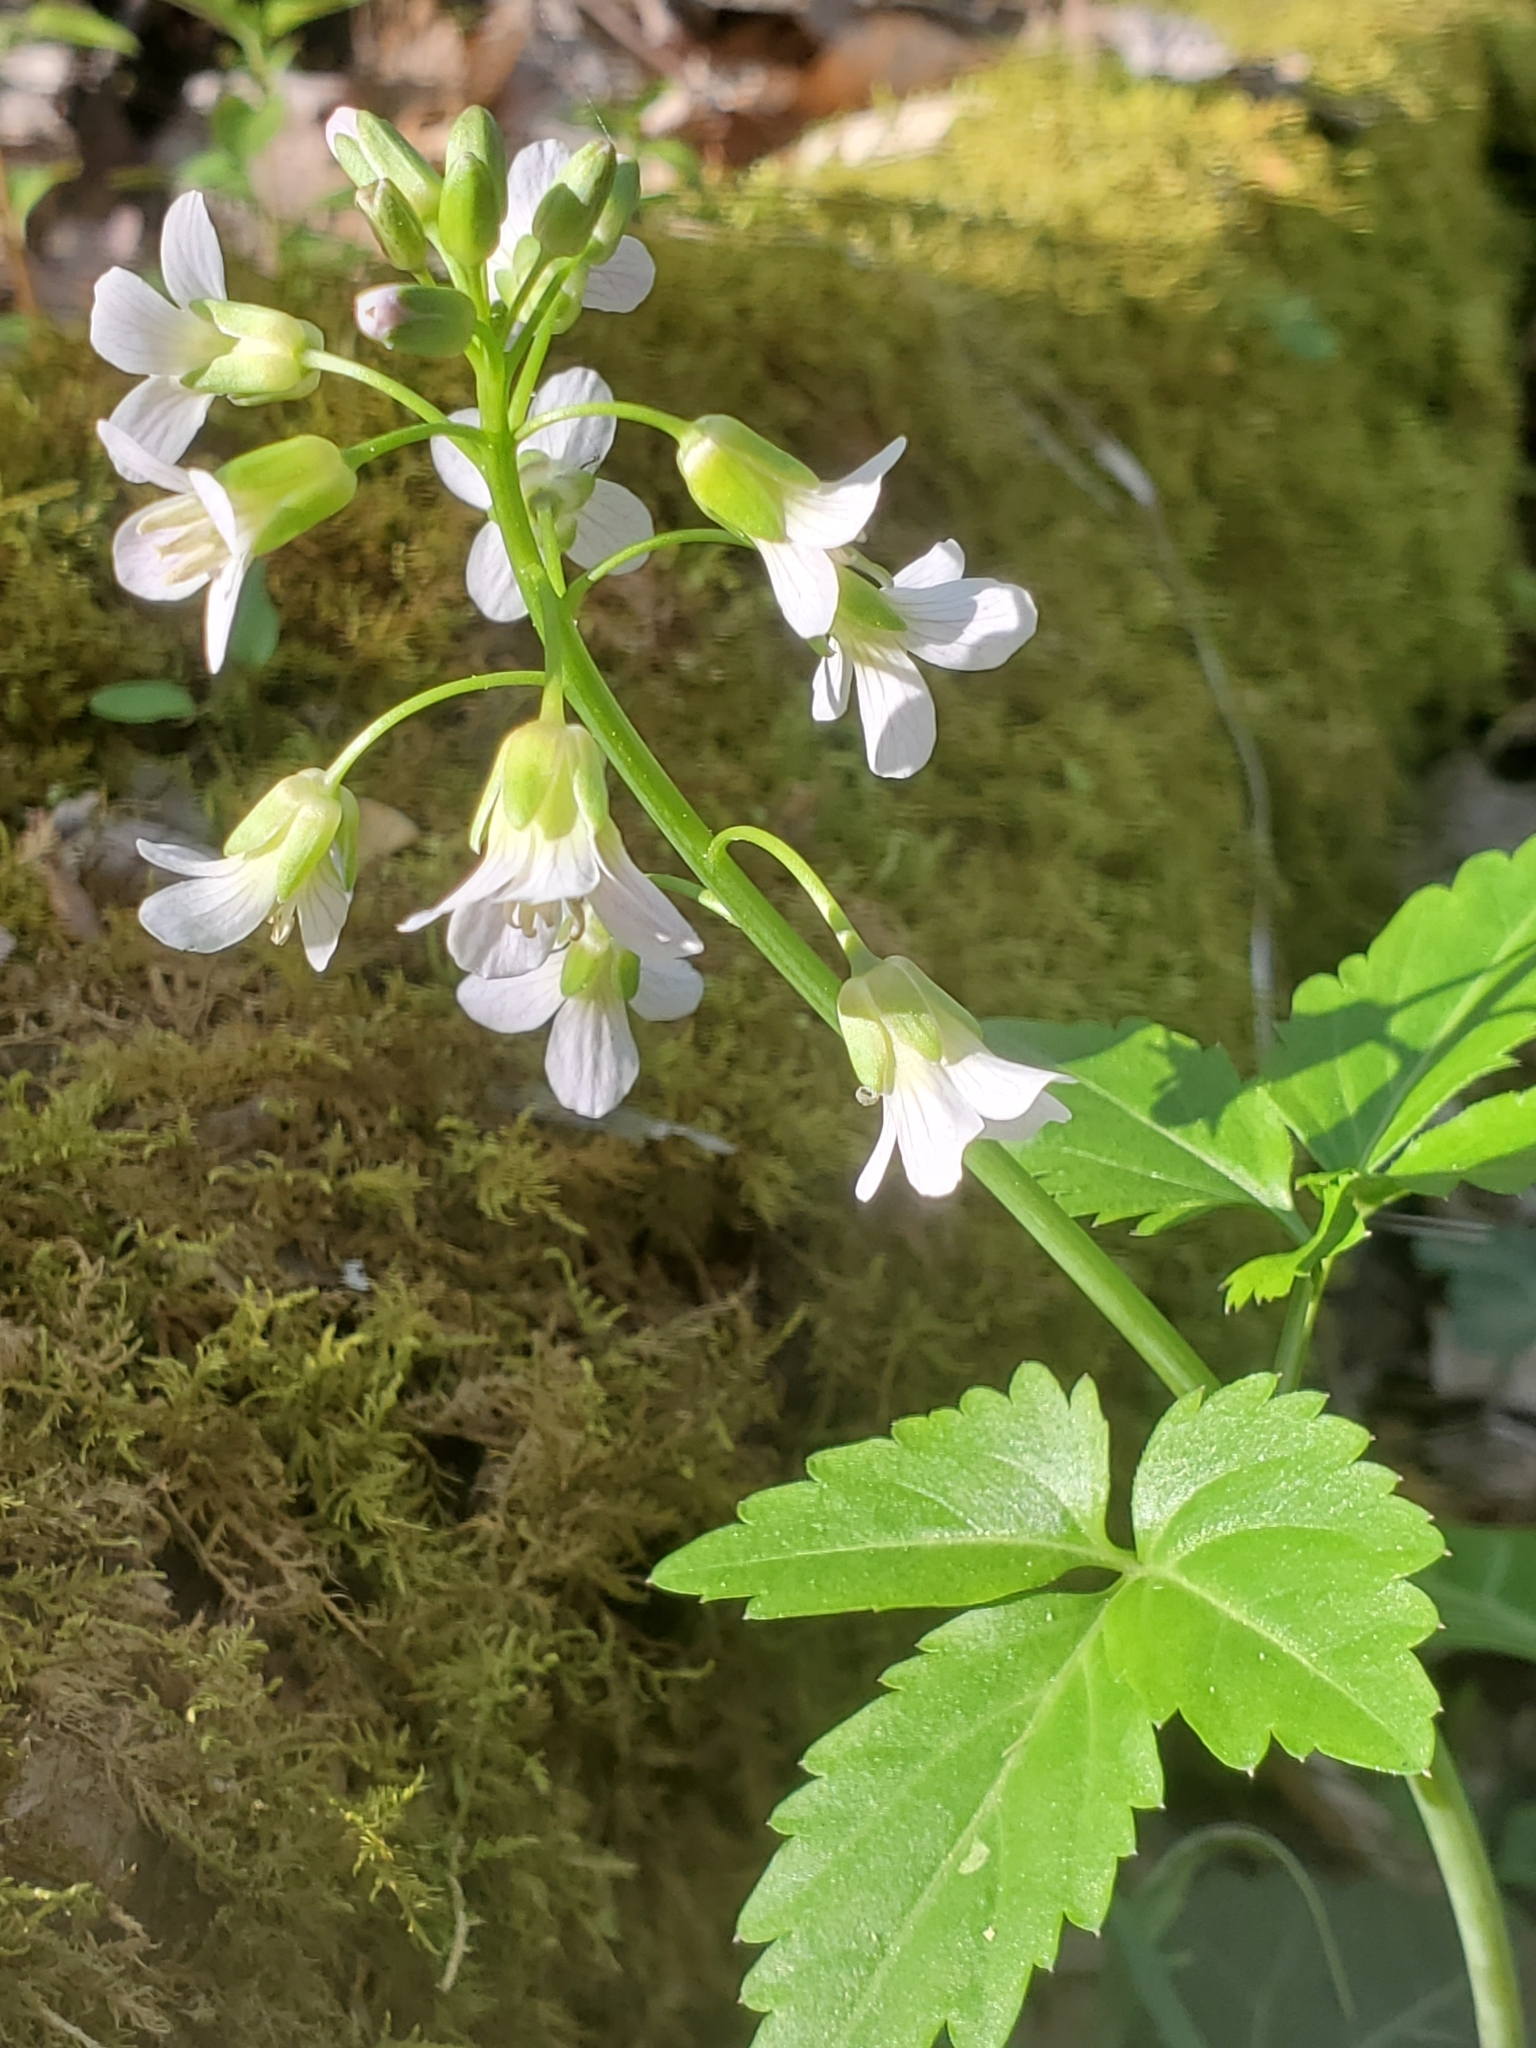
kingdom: Plantae
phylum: Tracheophyta
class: Magnoliopsida
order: Brassicales
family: Brassicaceae
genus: Cardamine
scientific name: Cardamine diphylla
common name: Broad-leaved toothwort
